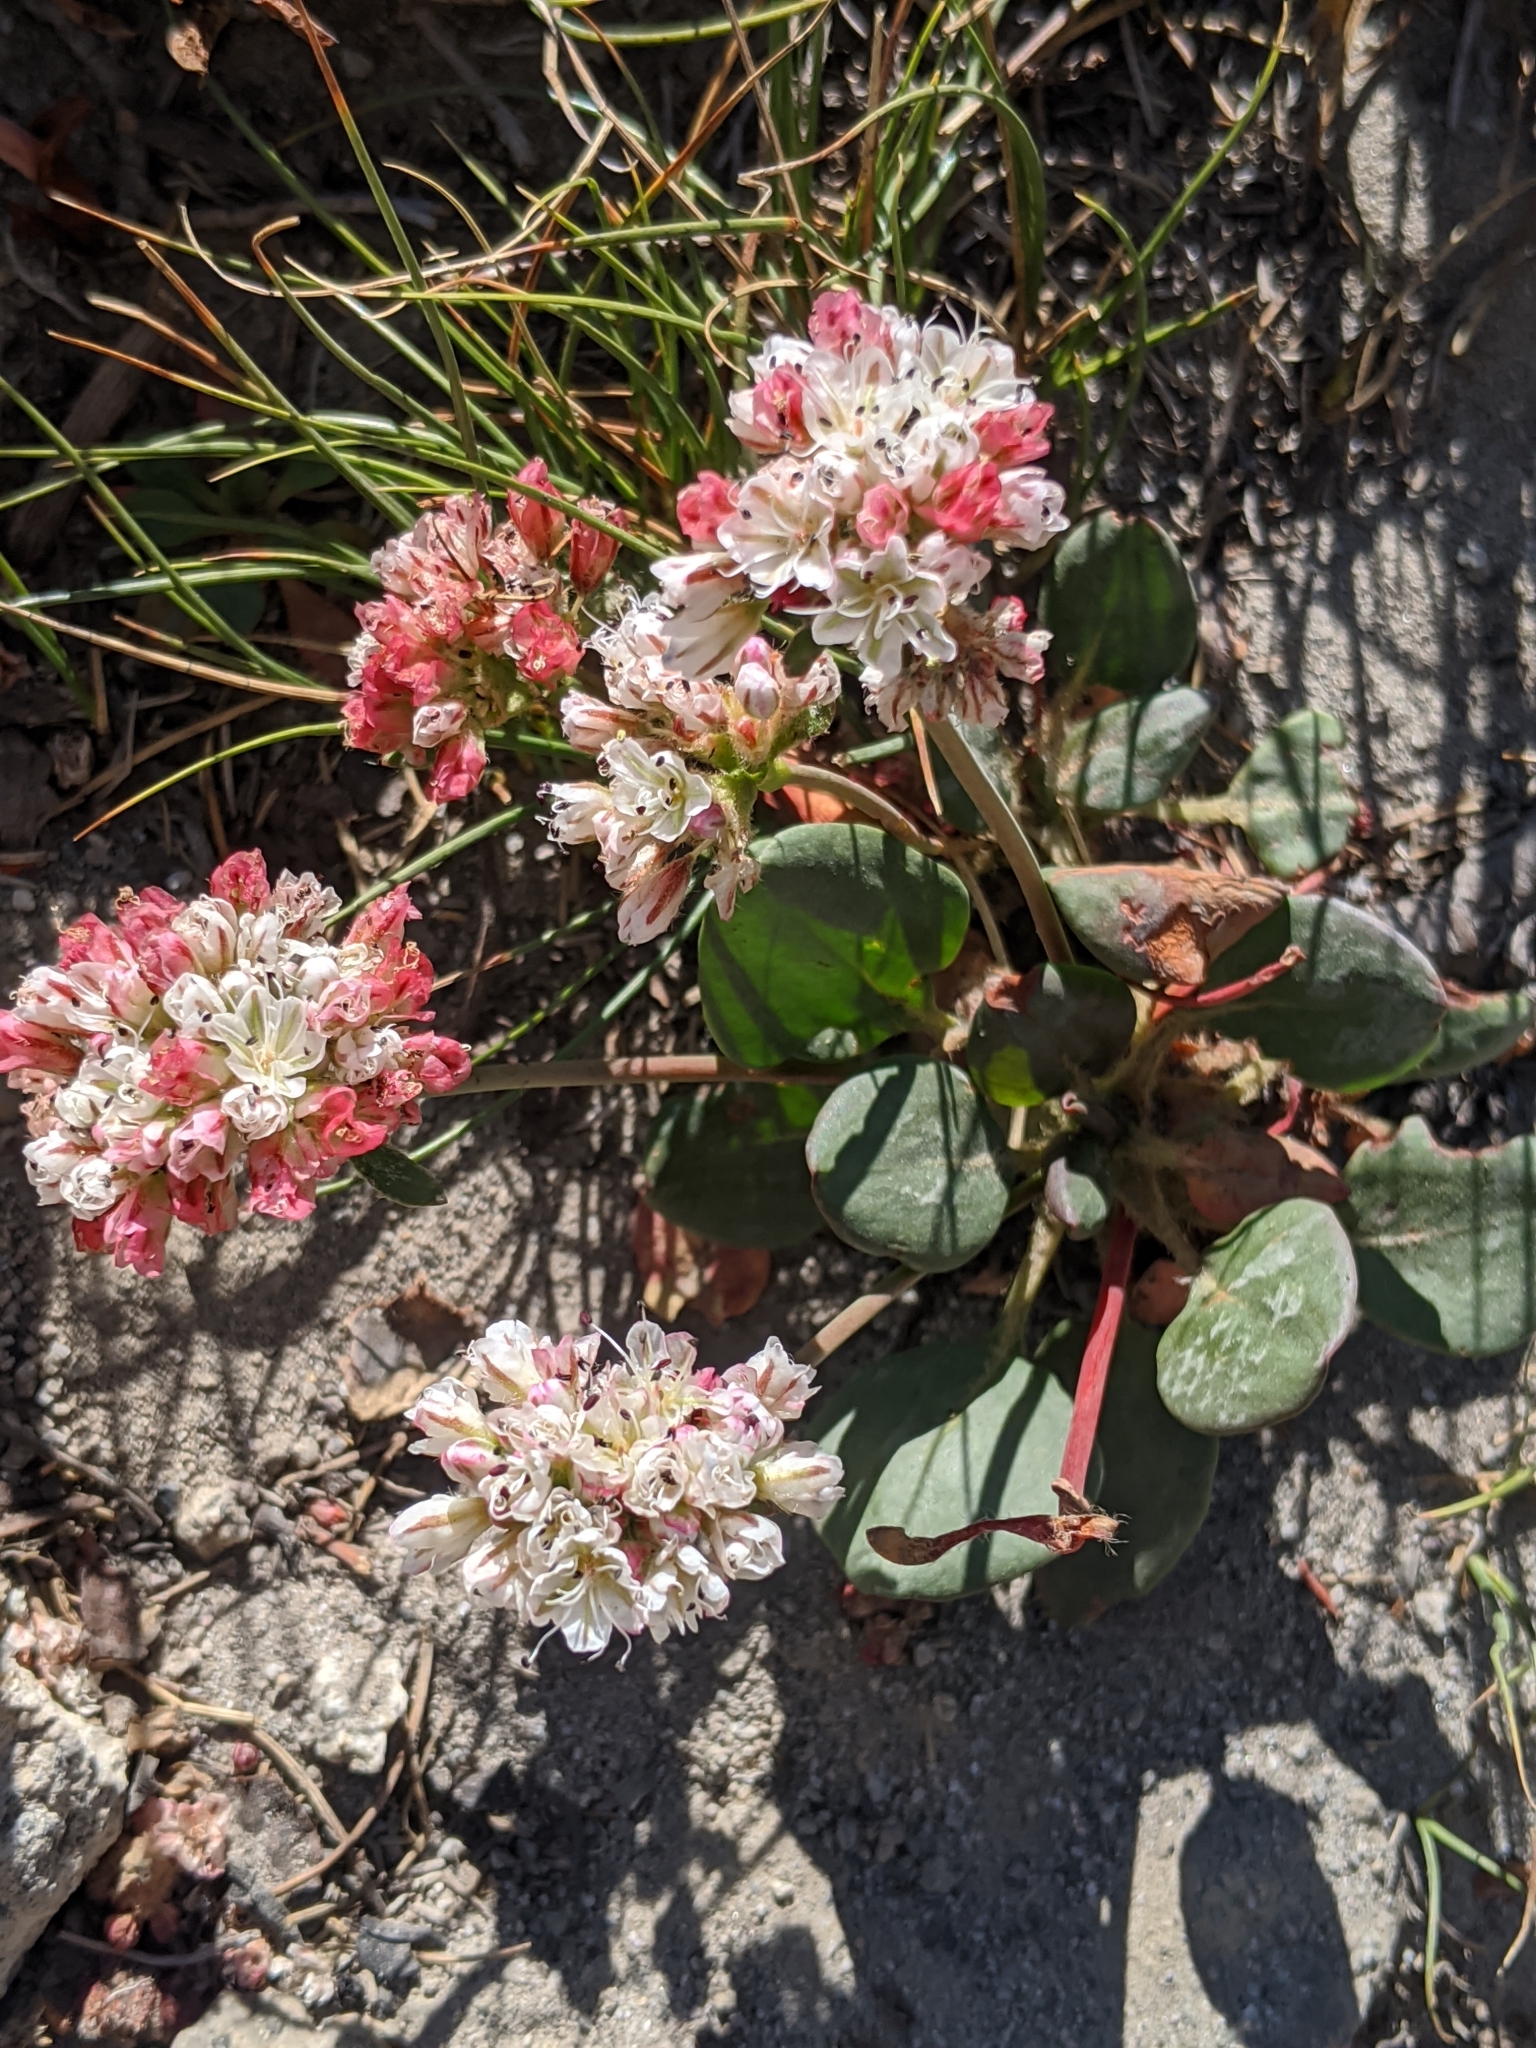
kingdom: Plantae
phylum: Tracheophyta
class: Magnoliopsida
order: Caryophyllales
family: Polygonaceae
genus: Eriogonum
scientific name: Eriogonum pyrolifolium
